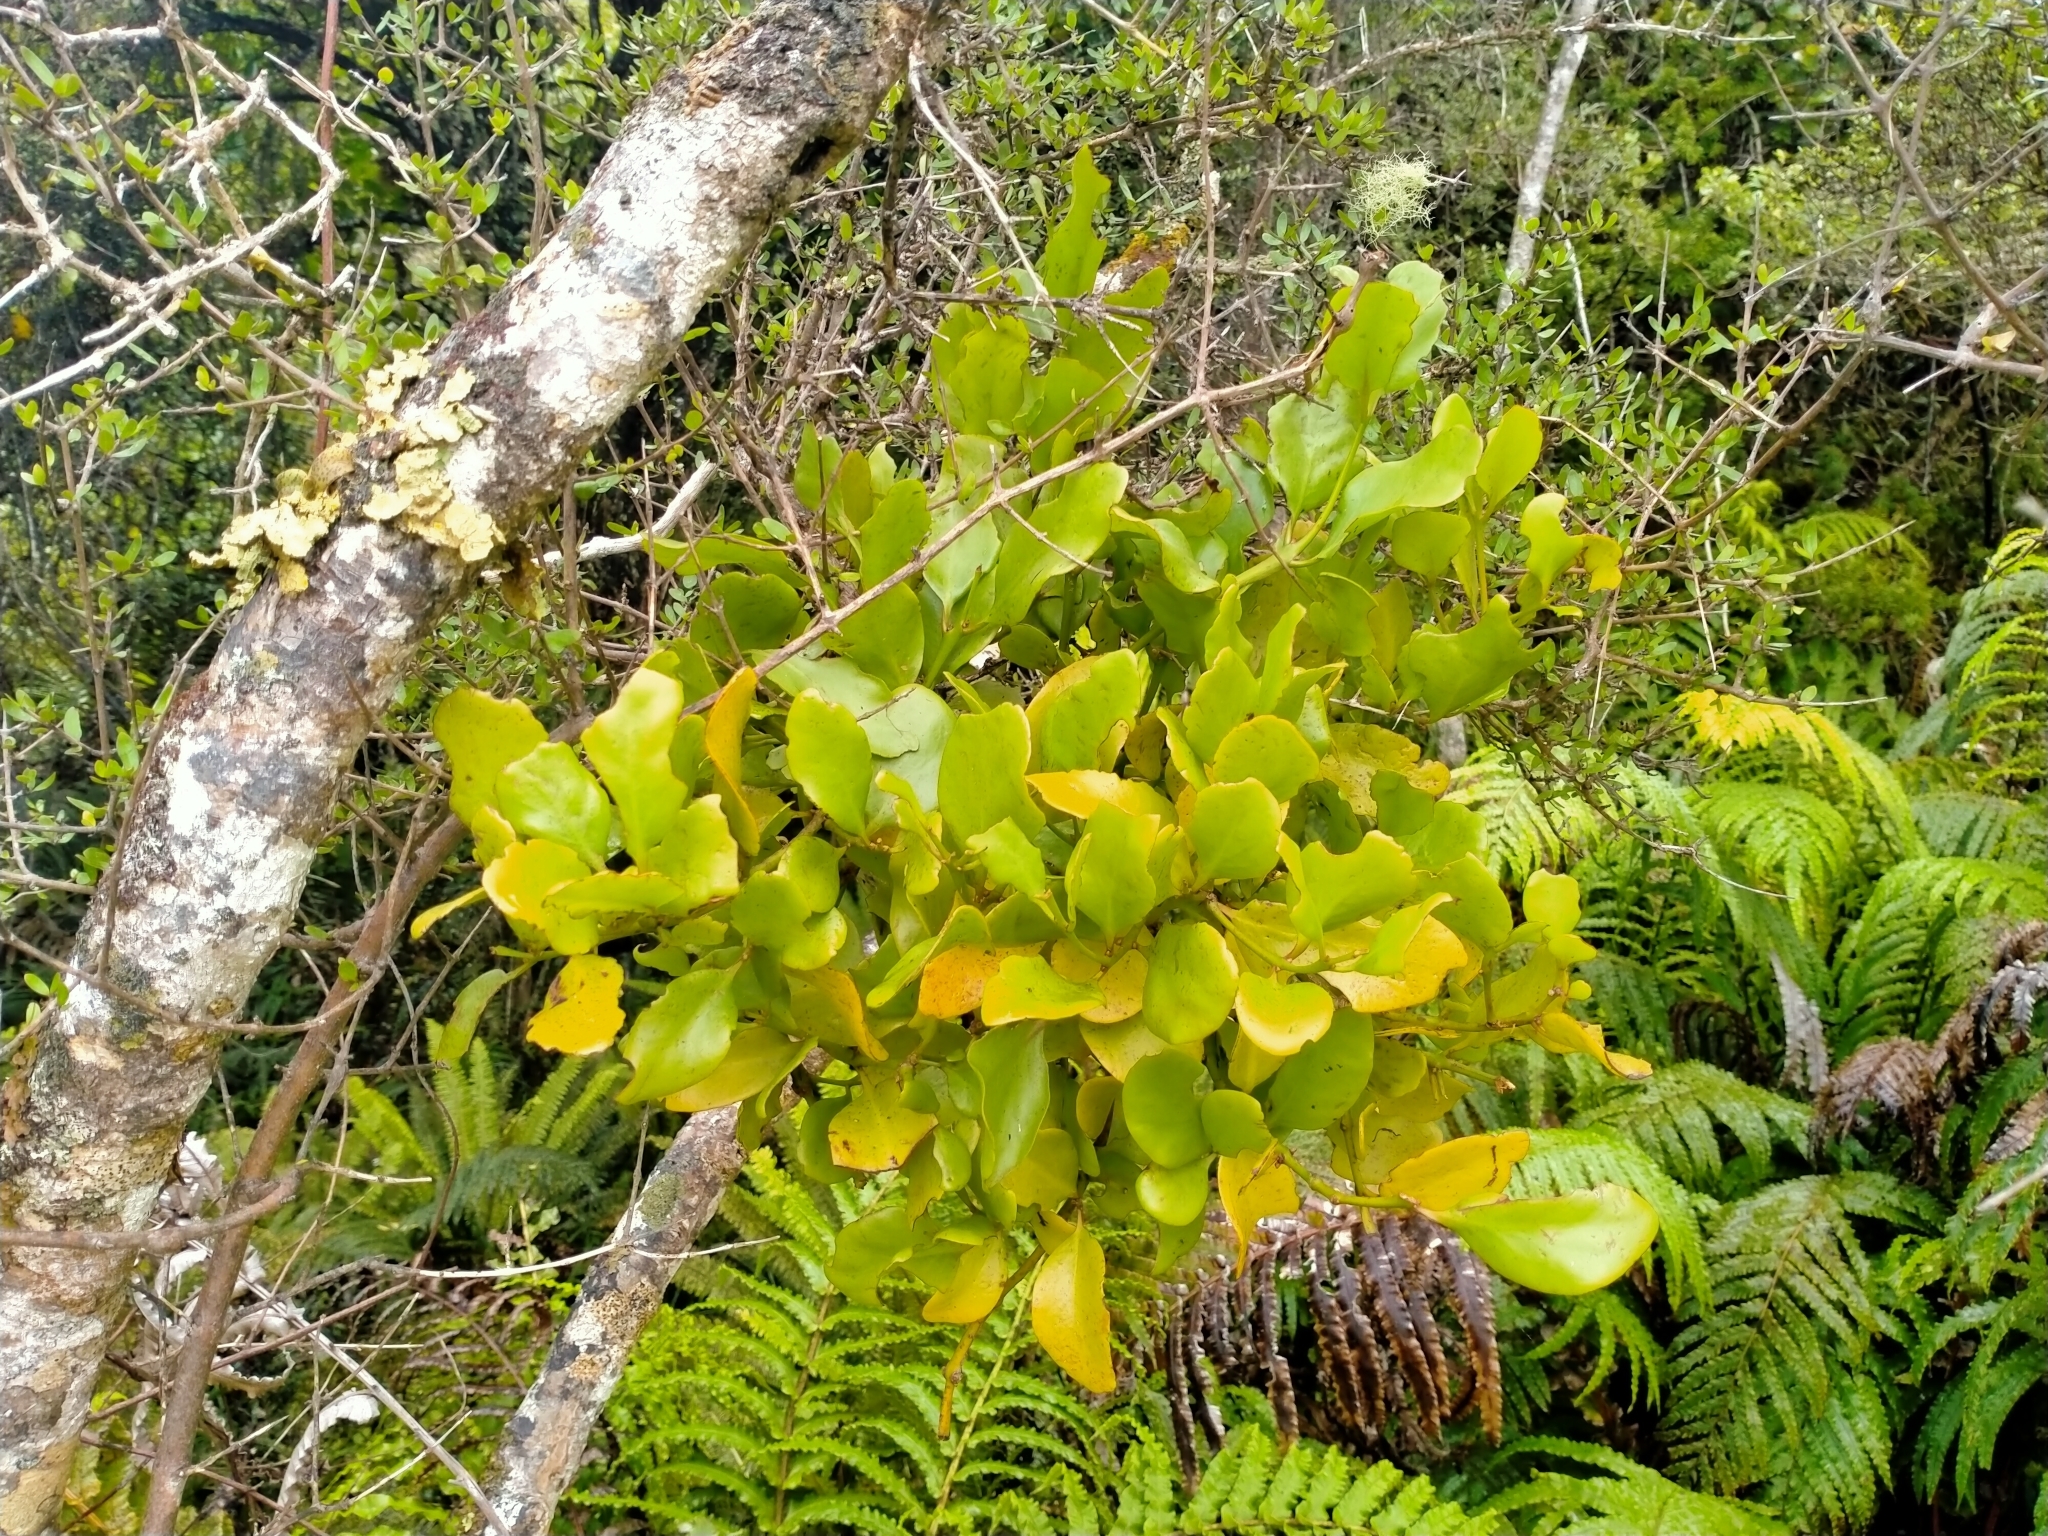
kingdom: Plantae
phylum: Tracheophyta
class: Magnoliopsida
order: Santalales
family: Loranthaceae
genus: Ileostylus
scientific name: Ileostylus micranthus
